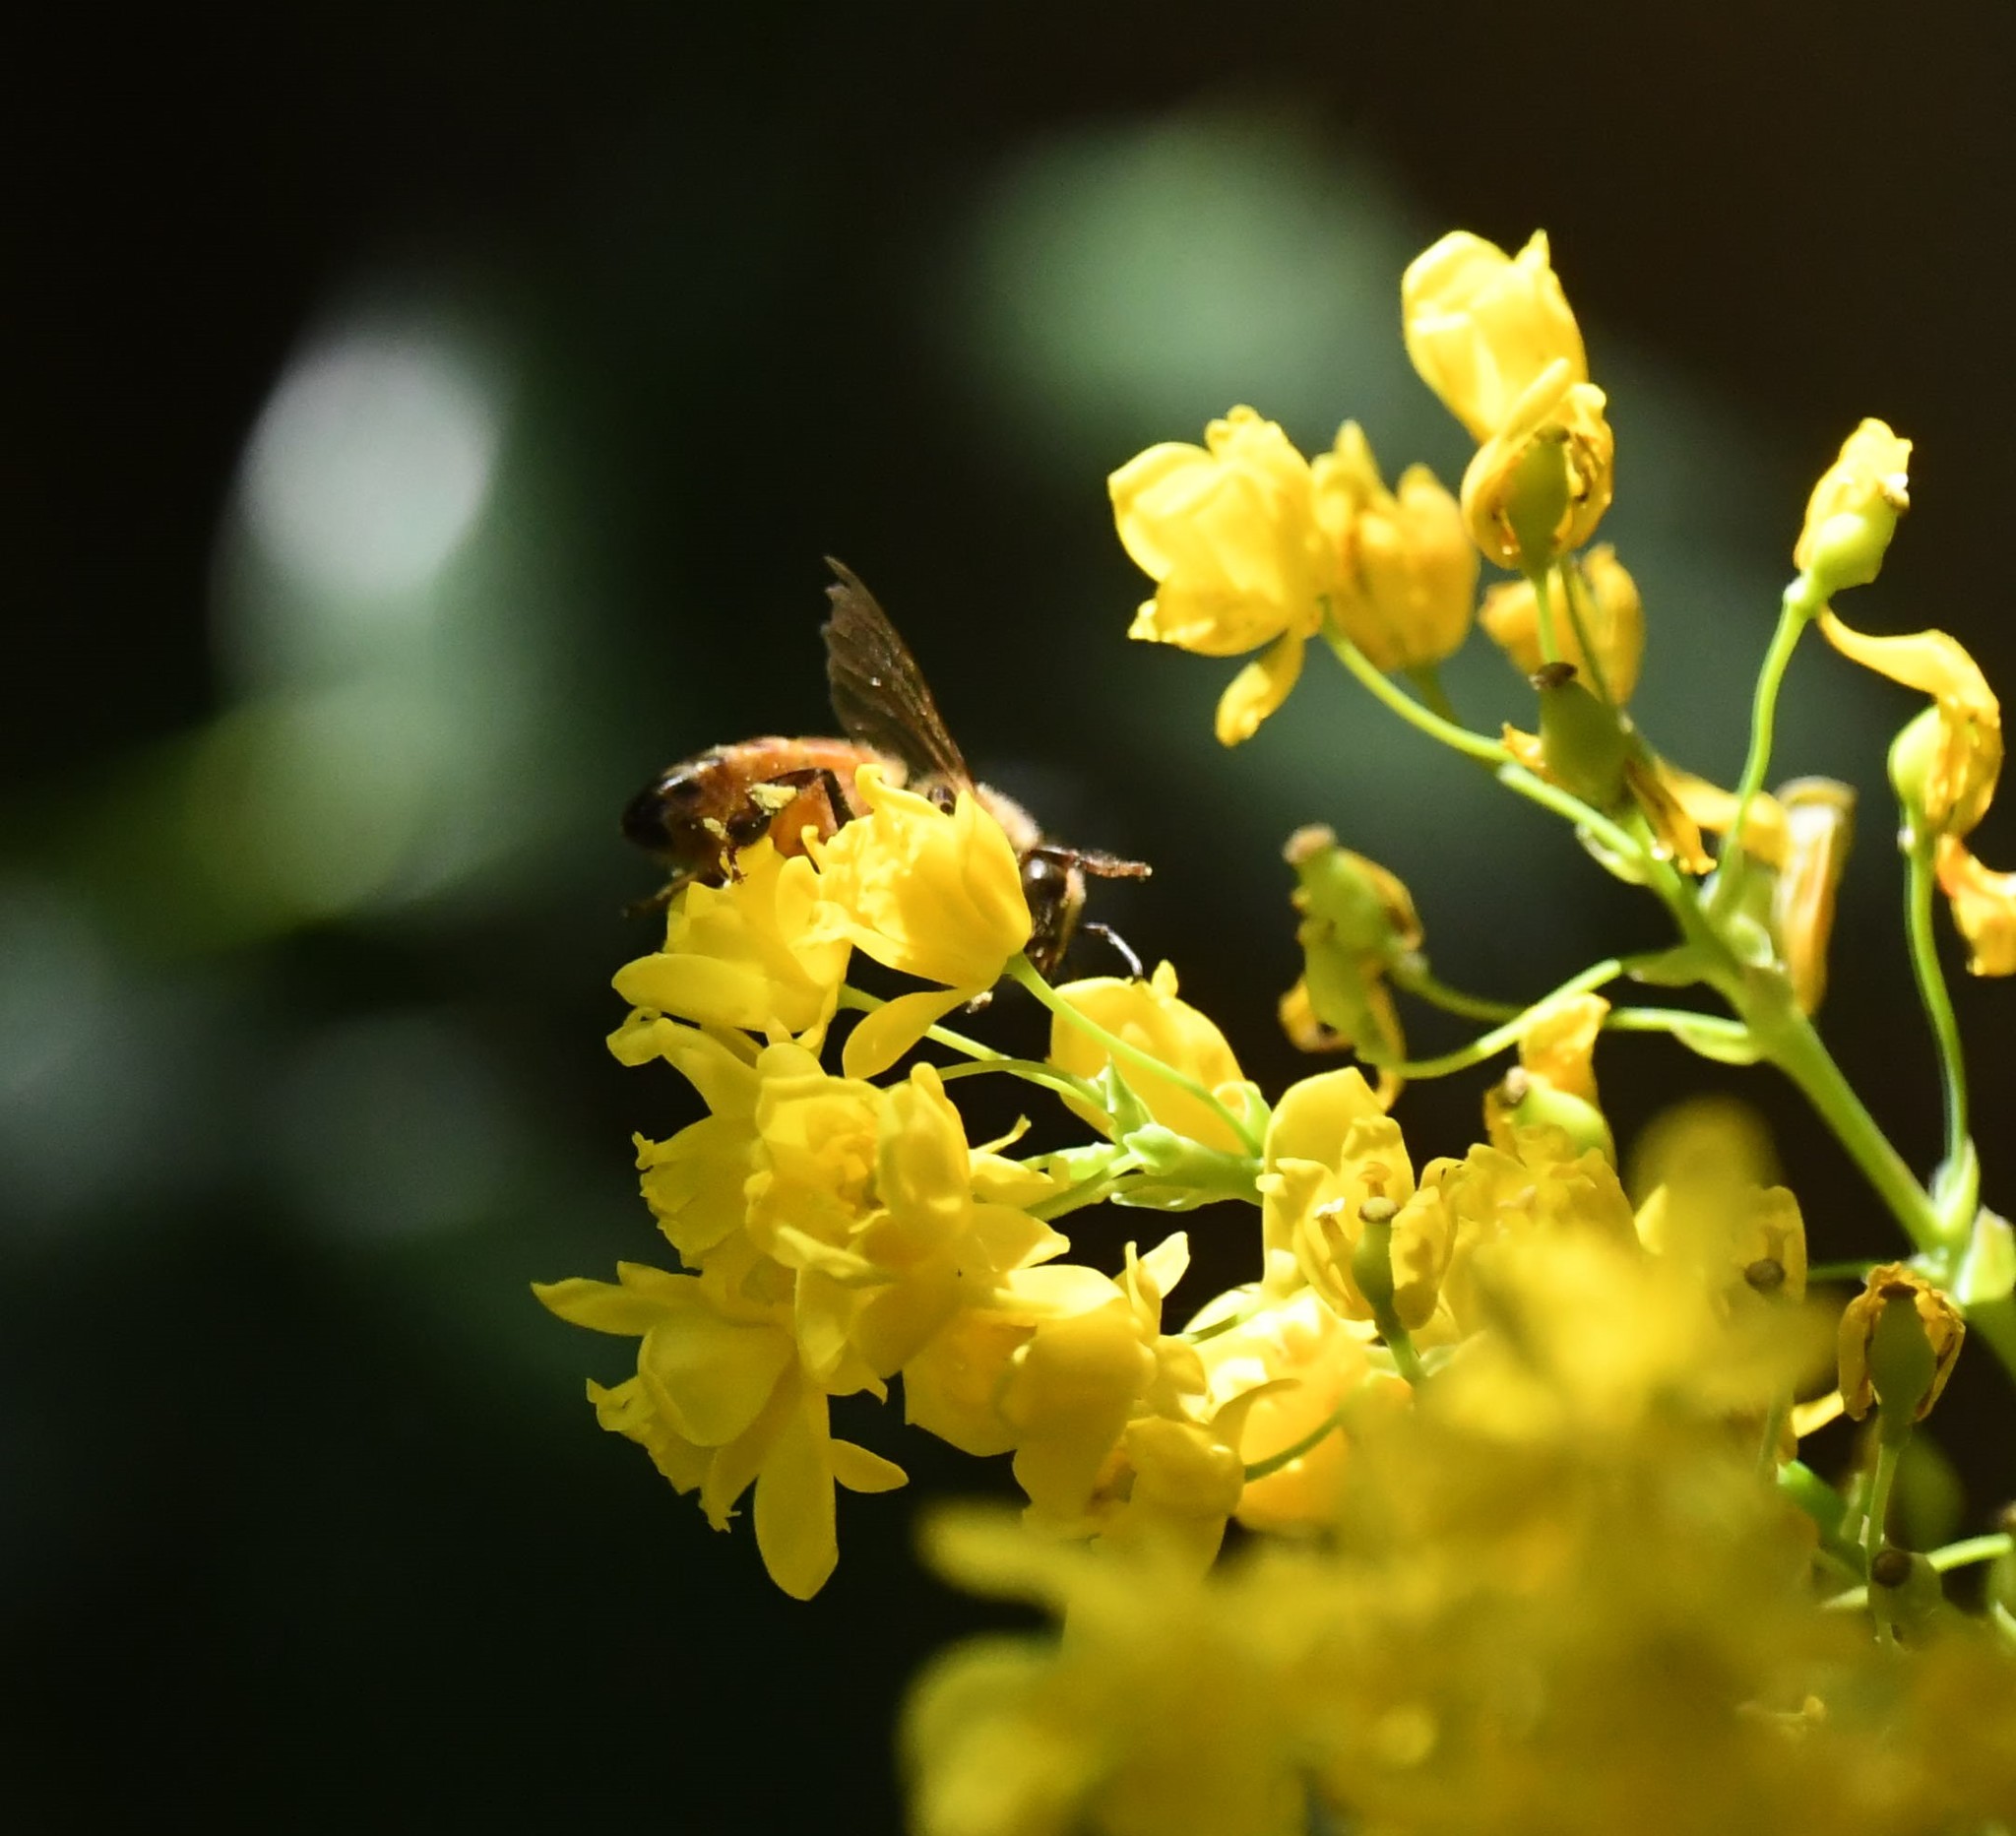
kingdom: Animalia
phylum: Arthropoda
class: Insecta
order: Hymenoptera
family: Apidae
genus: Apis
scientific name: Apis mellifera
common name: Honey bee
